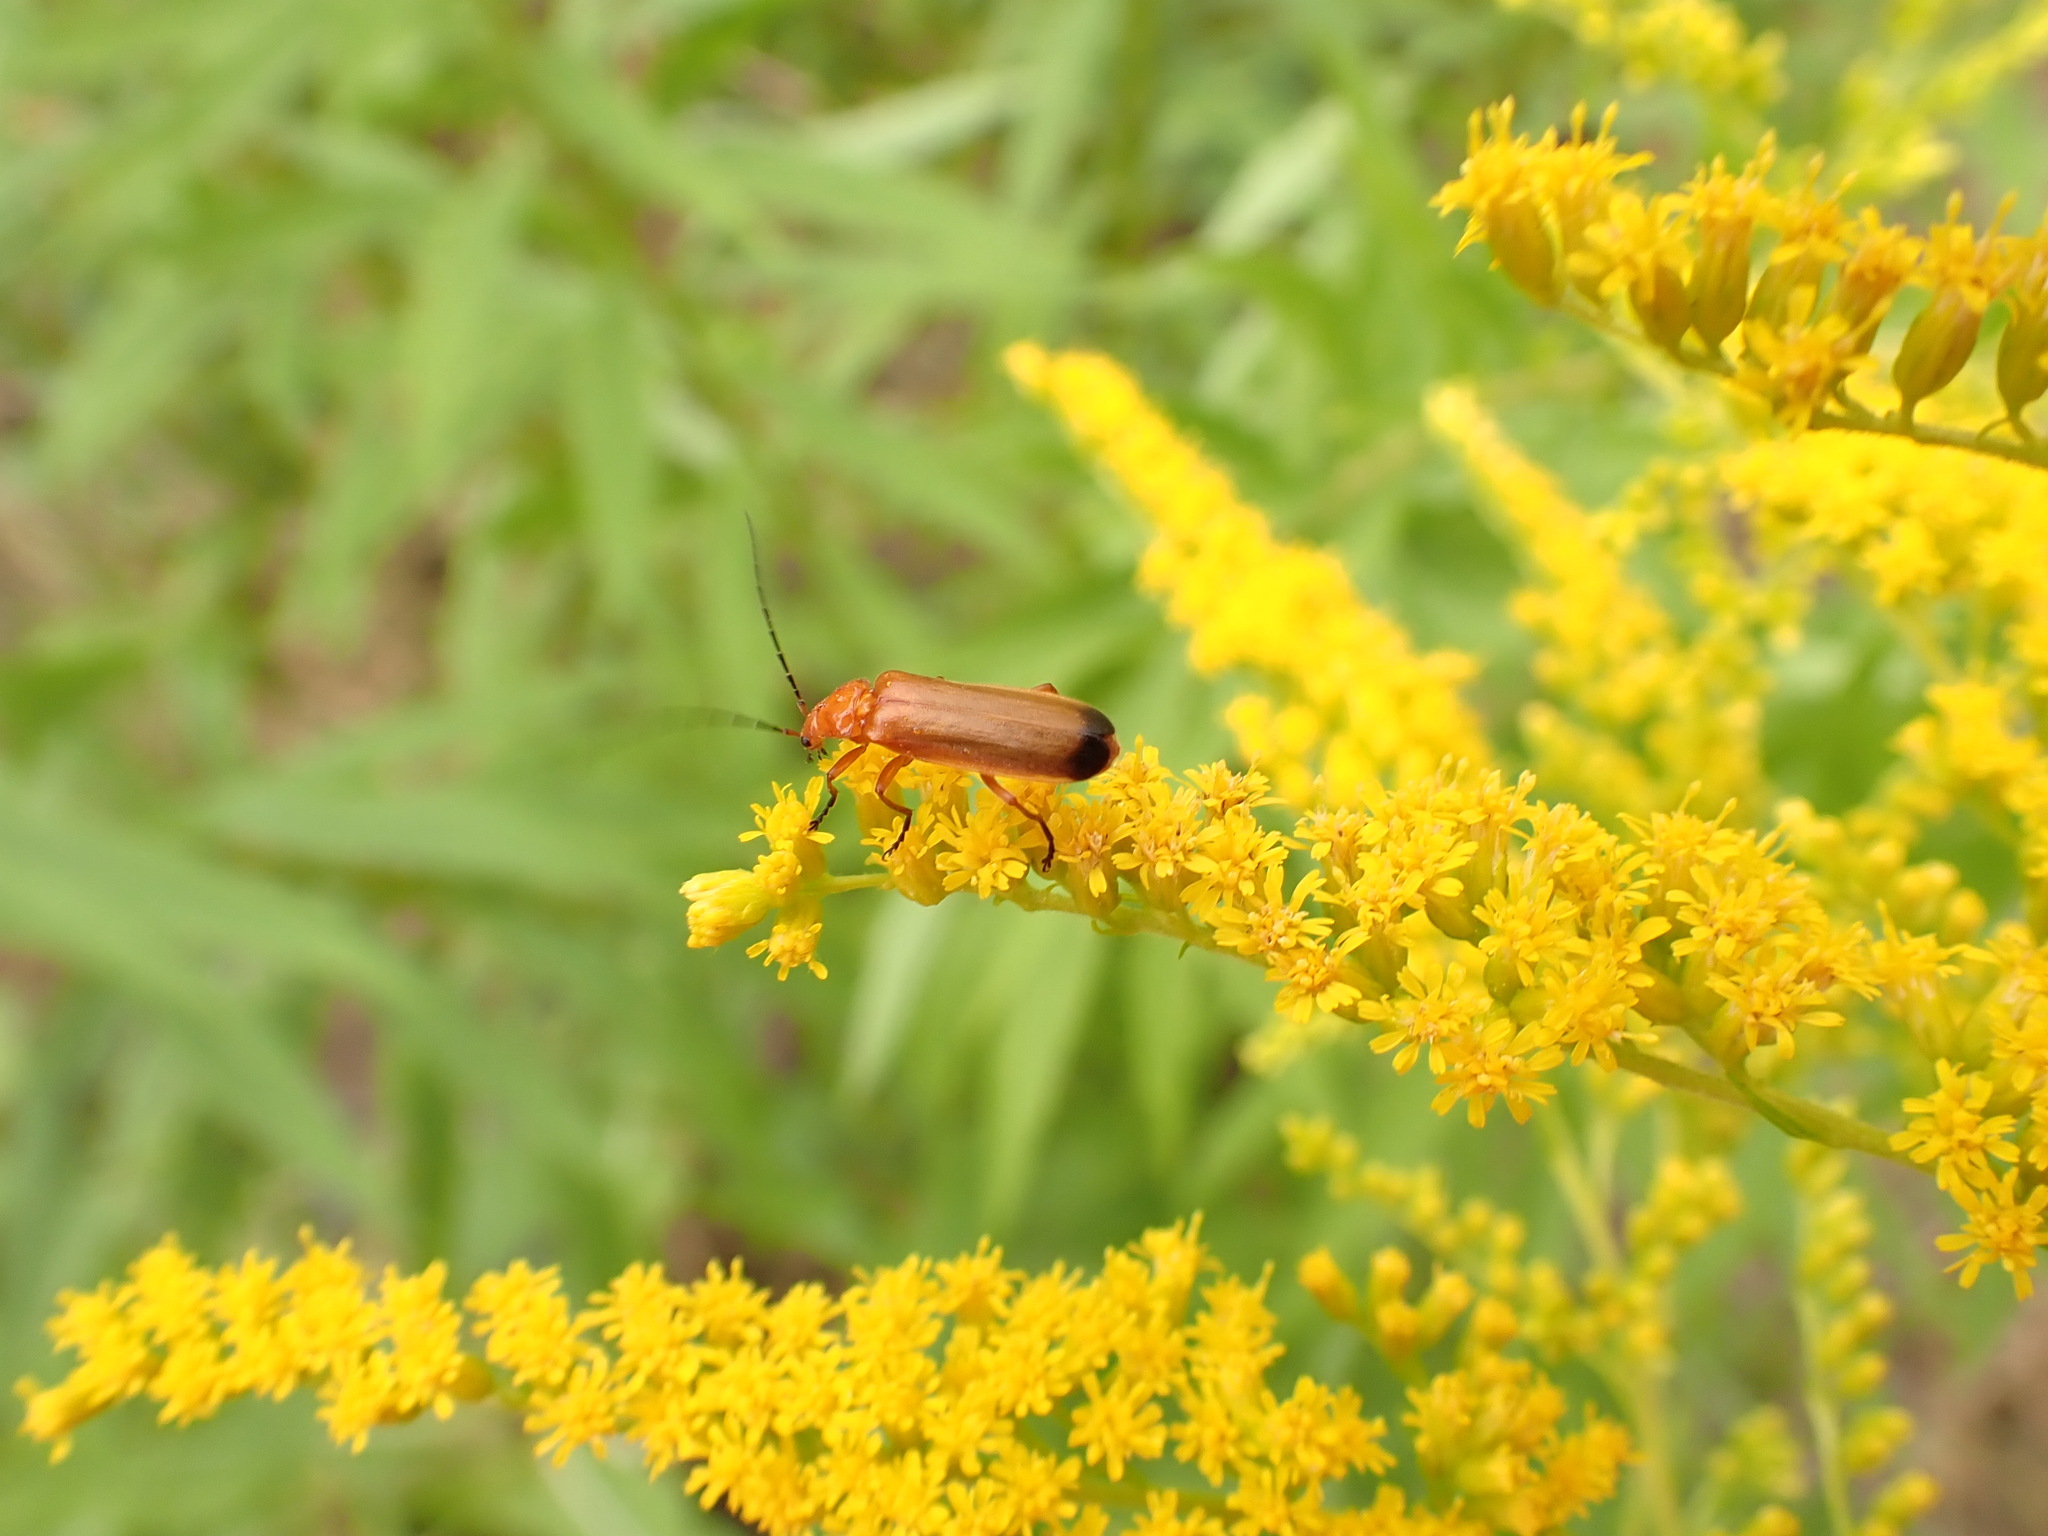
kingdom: Animalia
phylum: Arthropoda
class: Insecta
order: Coleoptera
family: Cantharidae
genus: Rhagonycha
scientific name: Rhagonycha fulva
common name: Common red soldier beetle
